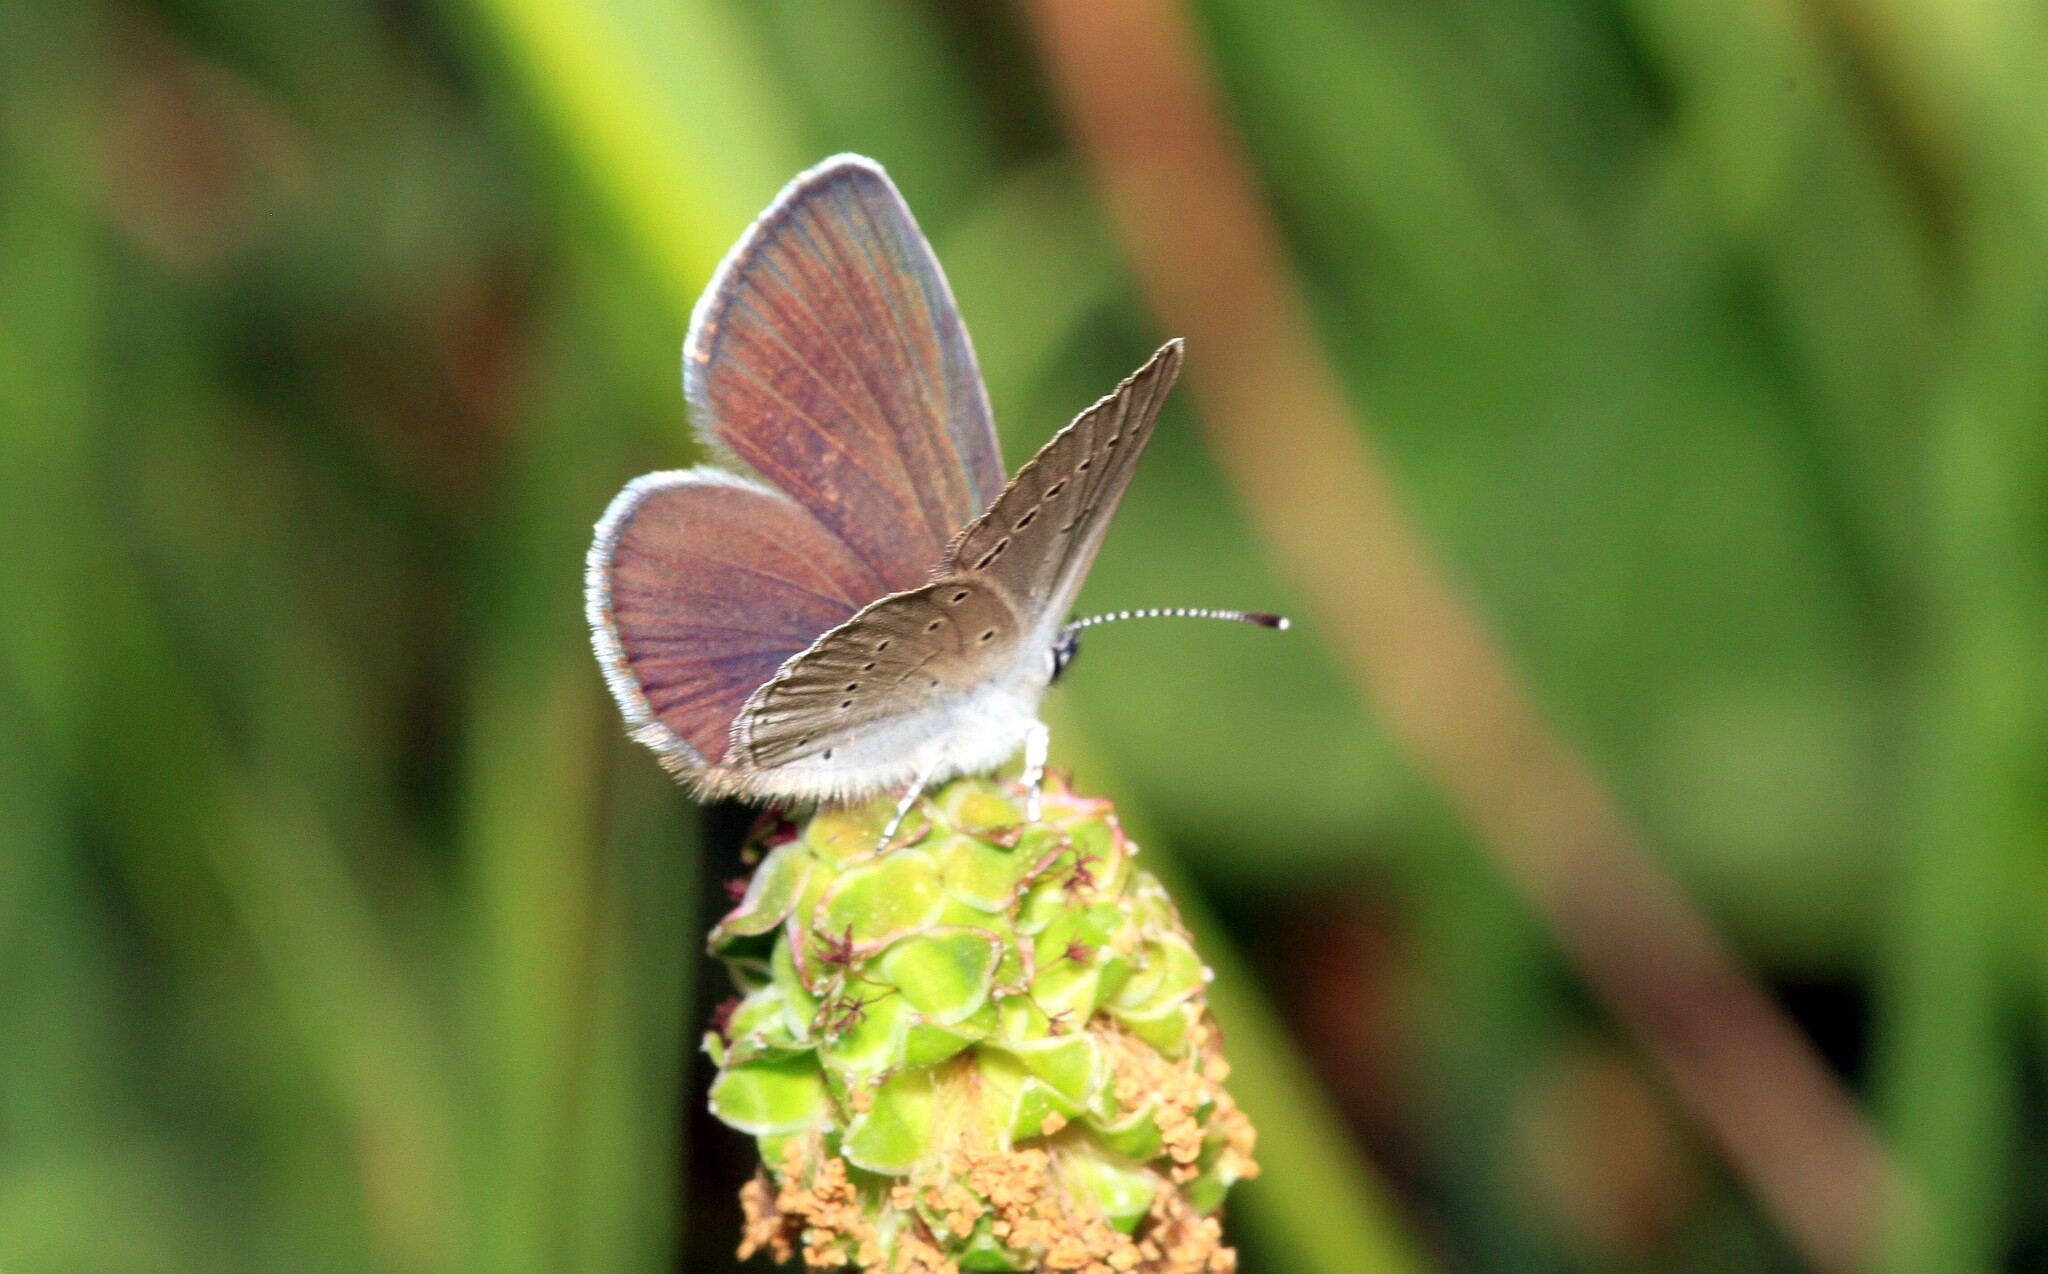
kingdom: Animalia
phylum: Arthropoda
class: Insecta
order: Lepidoptera
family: Lycaenidae
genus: Cupido
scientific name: Cupido minimus
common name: Small blue
